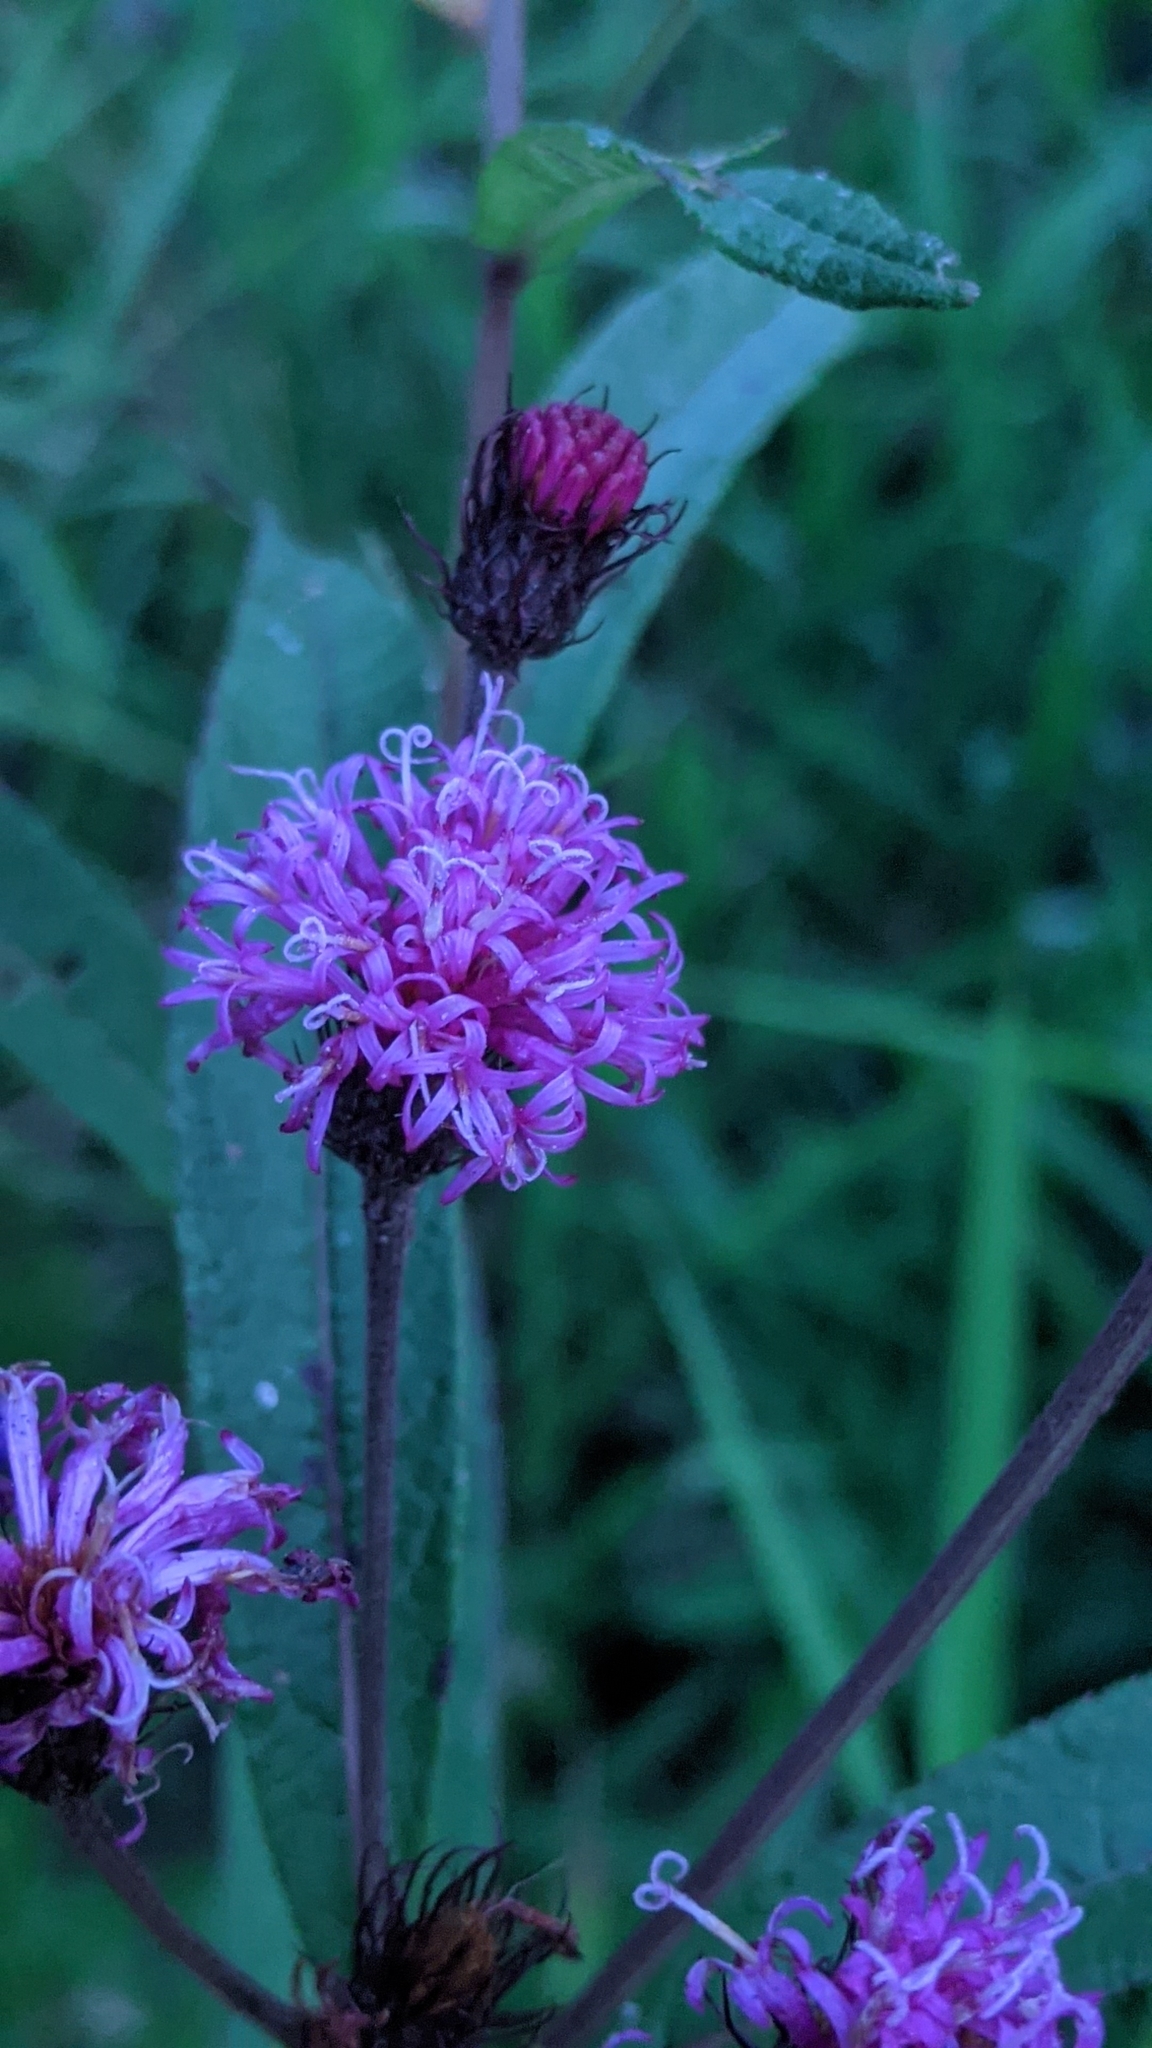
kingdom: Plantae
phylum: Tracheophyta
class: Magnoliopsida
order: Asterales
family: Asteraceae
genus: Vernonia
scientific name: Vernonia noveboracensis
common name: New york ironweed
